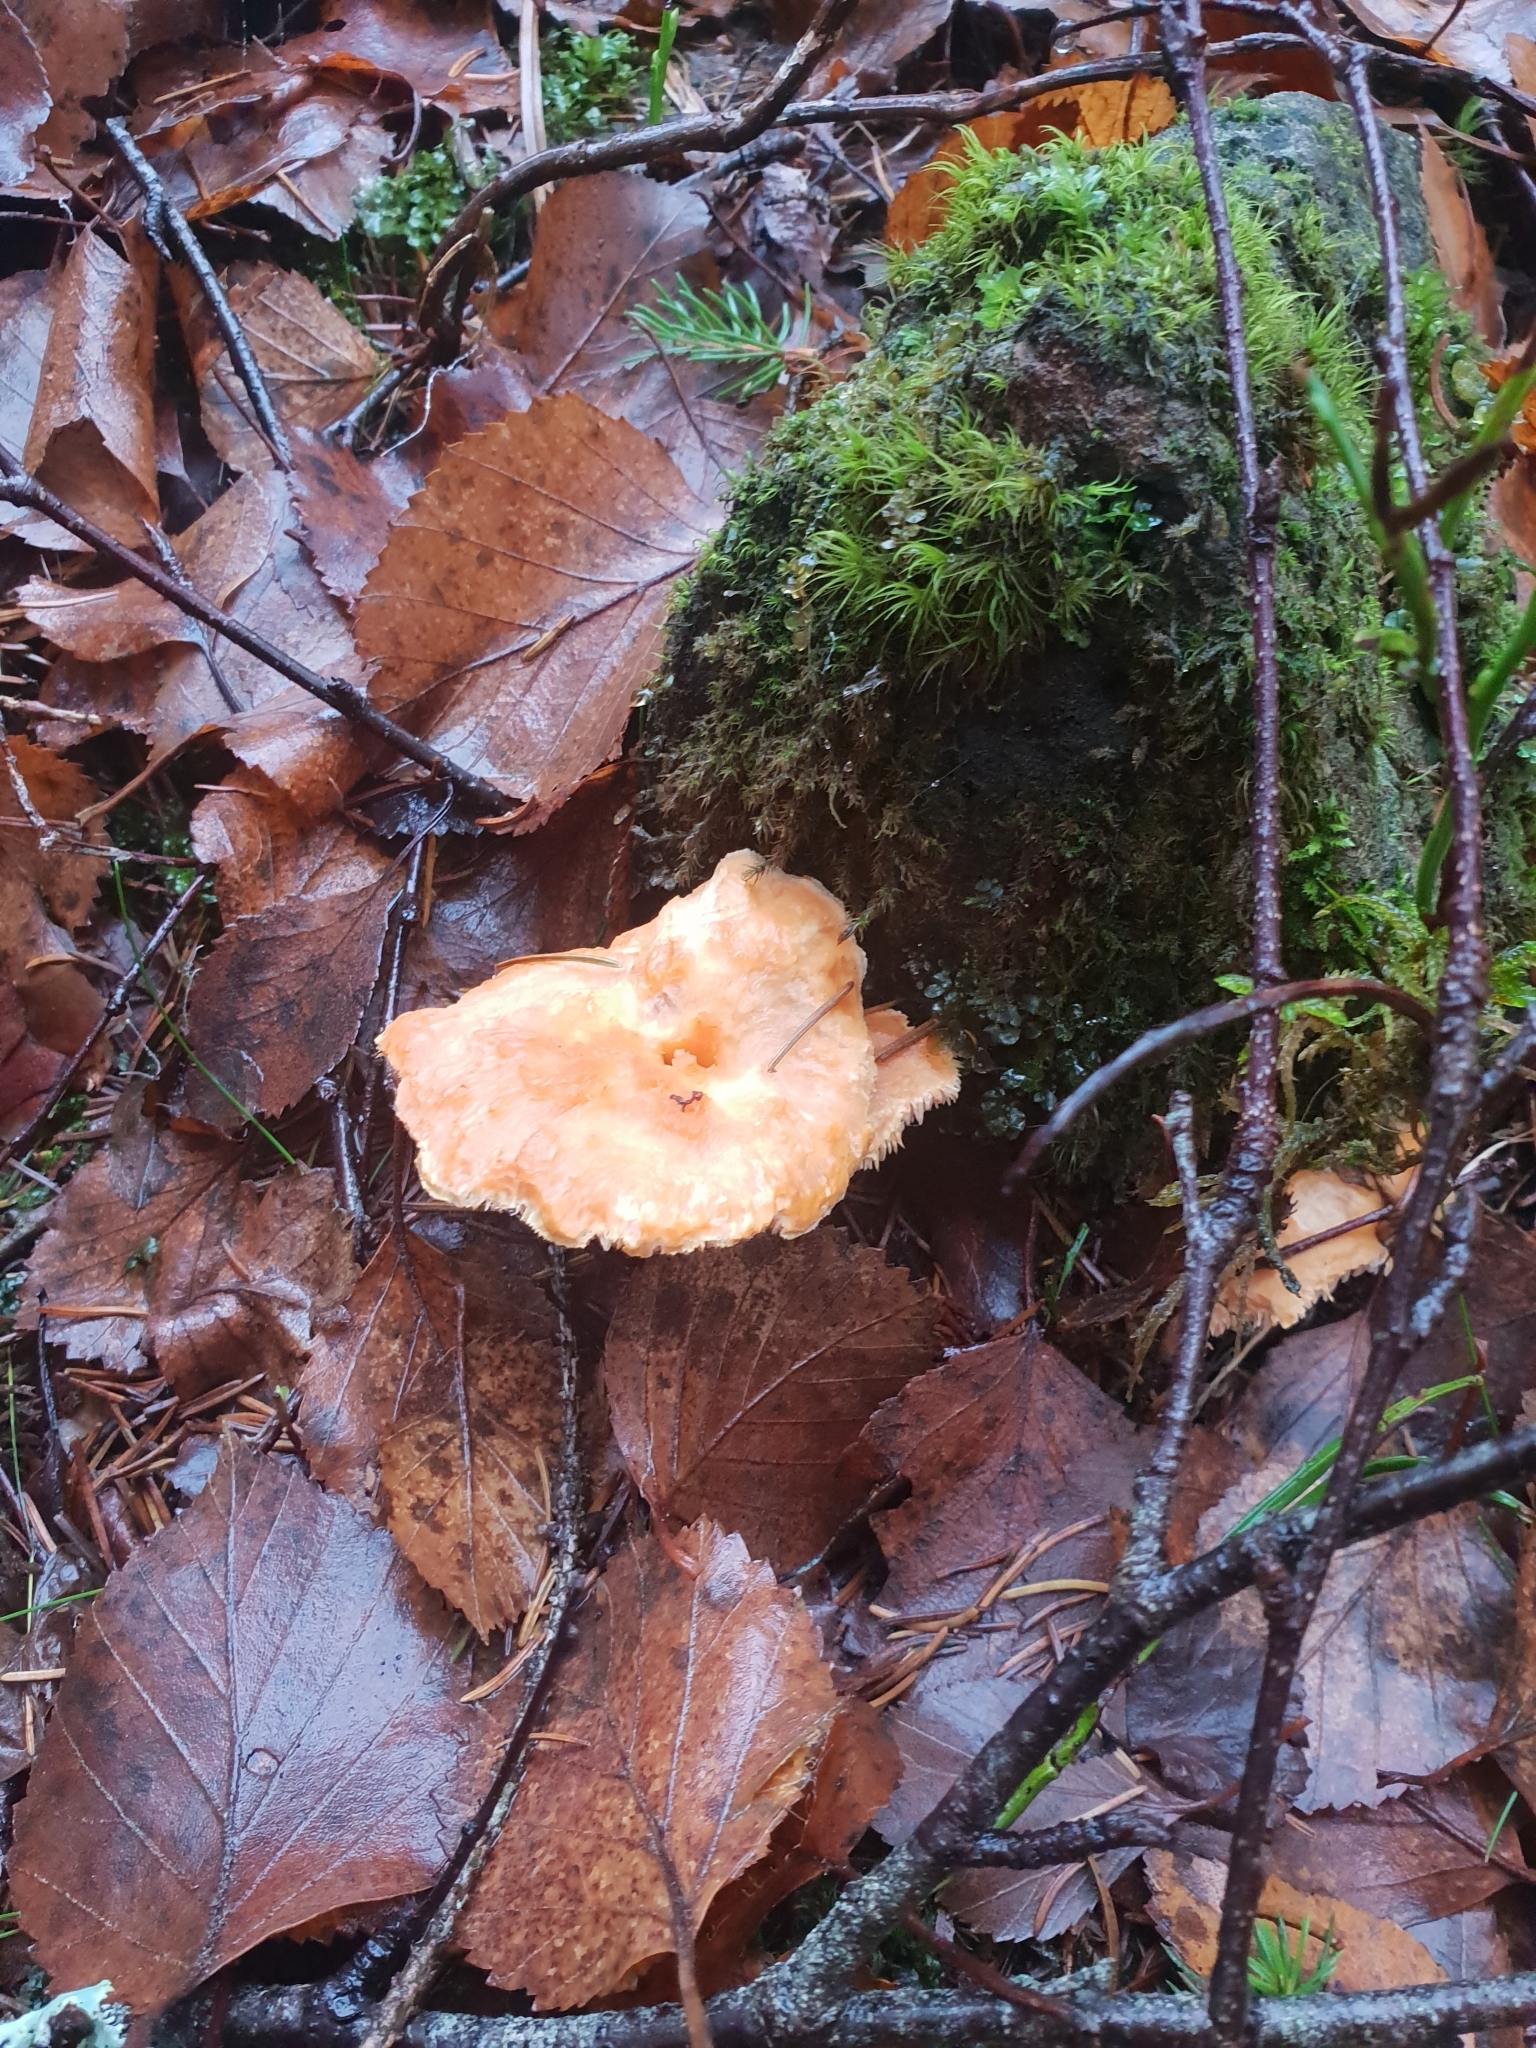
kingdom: Fungi
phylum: Basidiomycota
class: Agaricomycetes
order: Cantharellales
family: Hydnaceae
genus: Hydnum
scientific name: Hydnum rufescens
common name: Terracotta hedgehog
